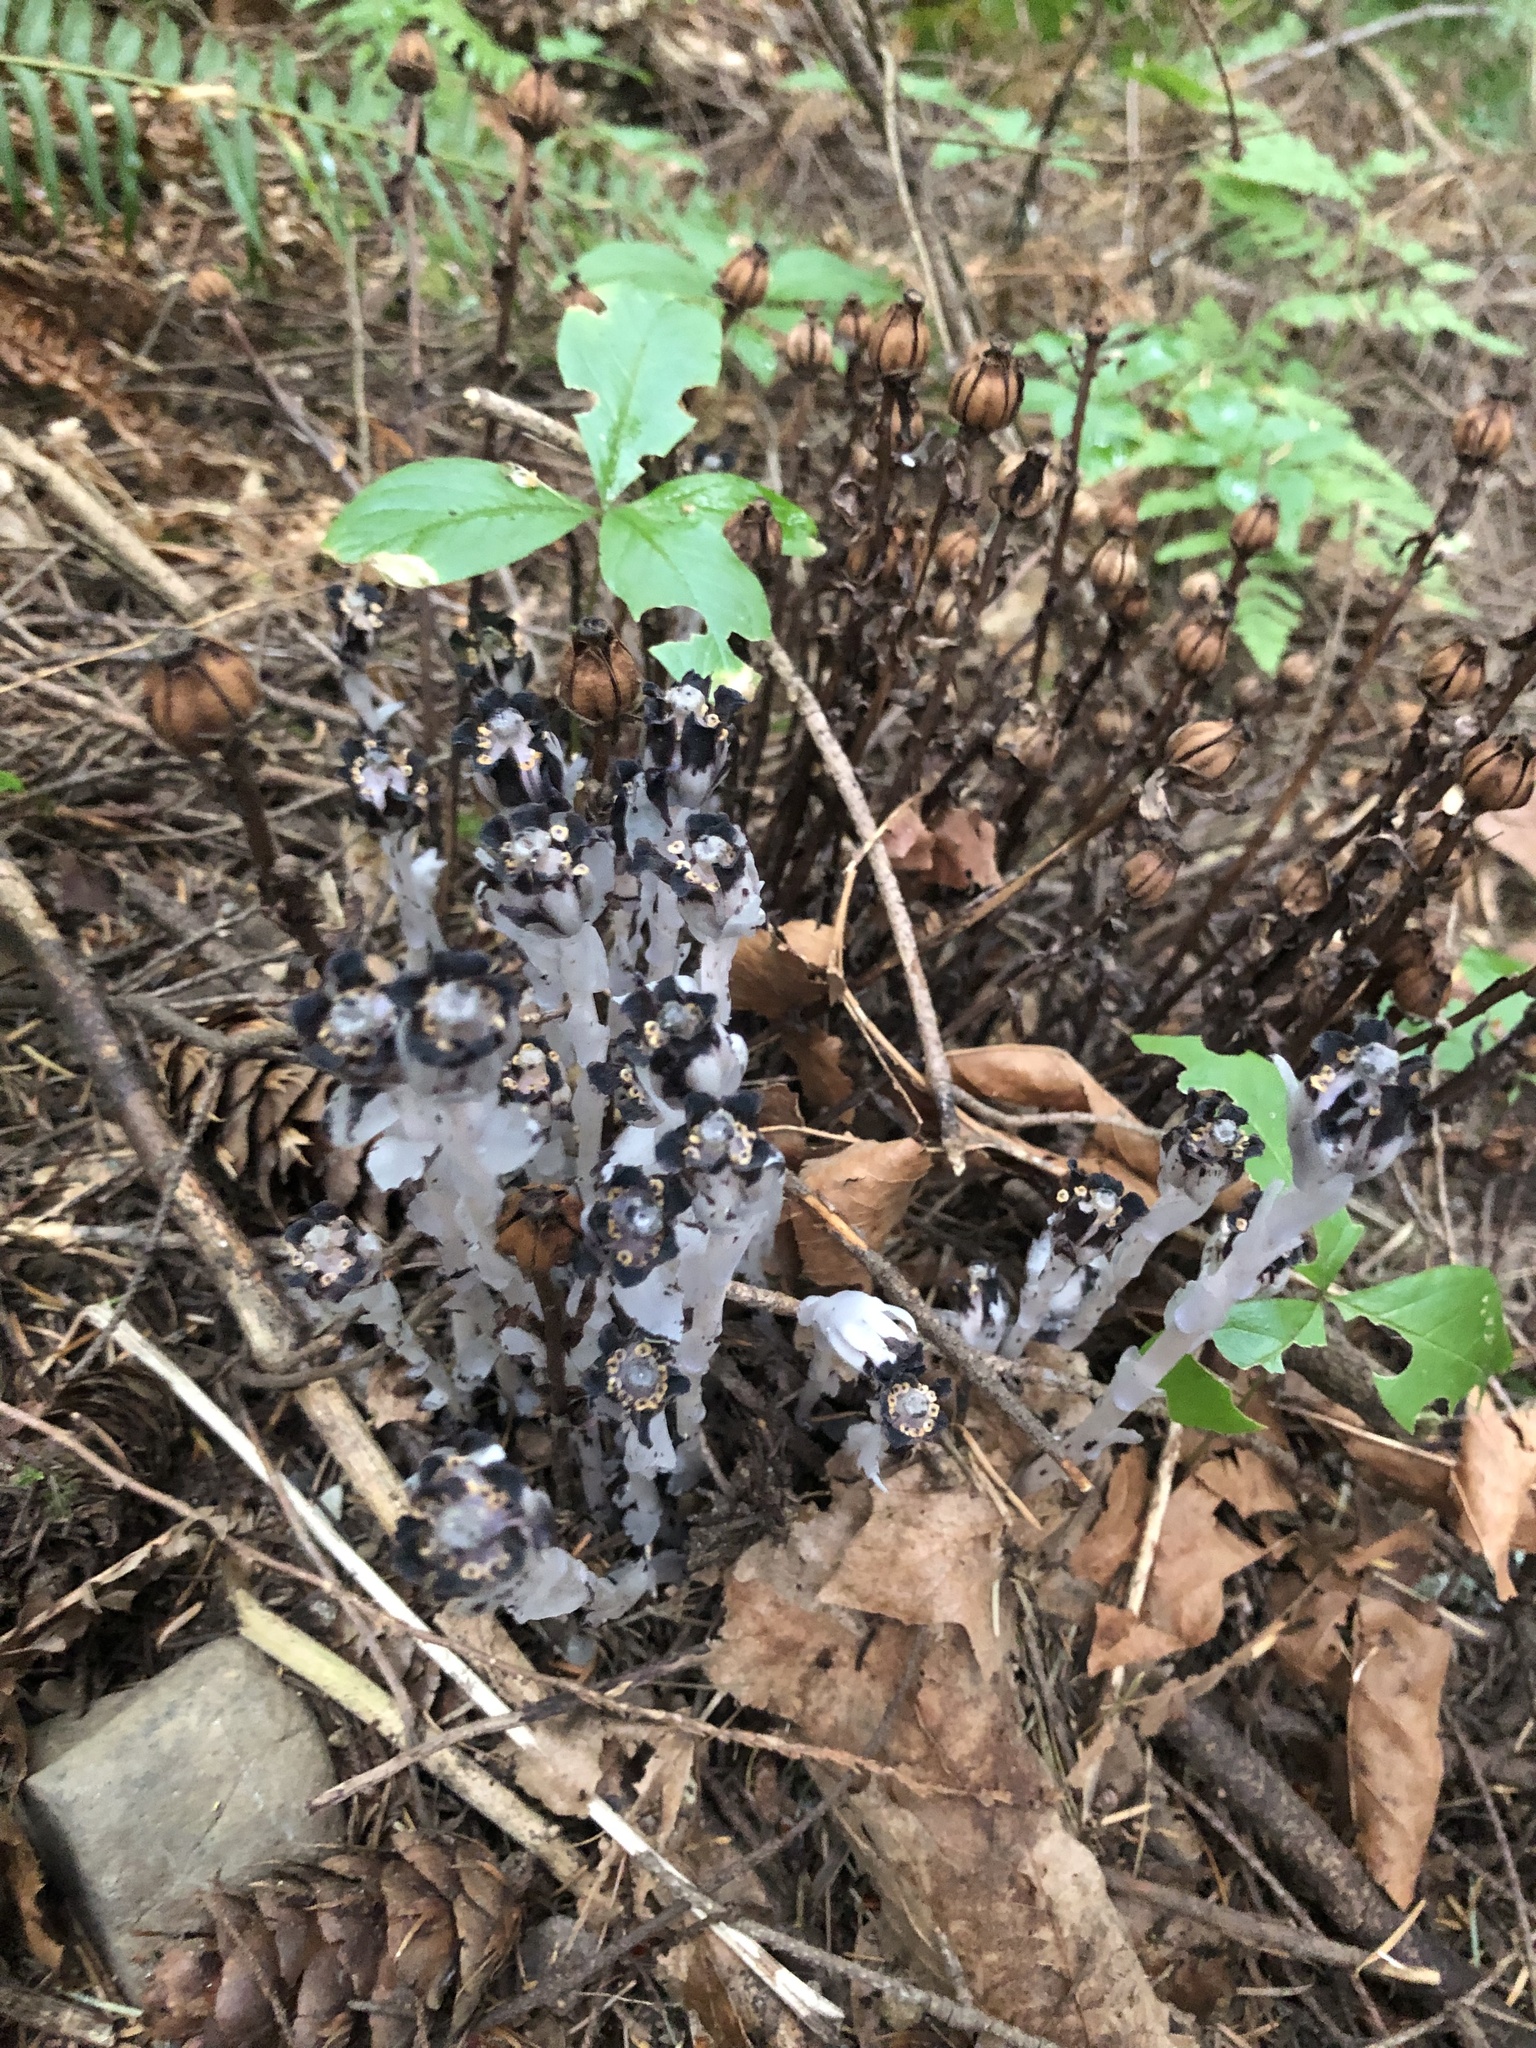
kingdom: Plantae
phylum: Tracheophyta
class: Magnoliopsida
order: Ericales
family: Ericaceae
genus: Monotropa
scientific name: Monotropa uniflora
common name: Convulsion root
